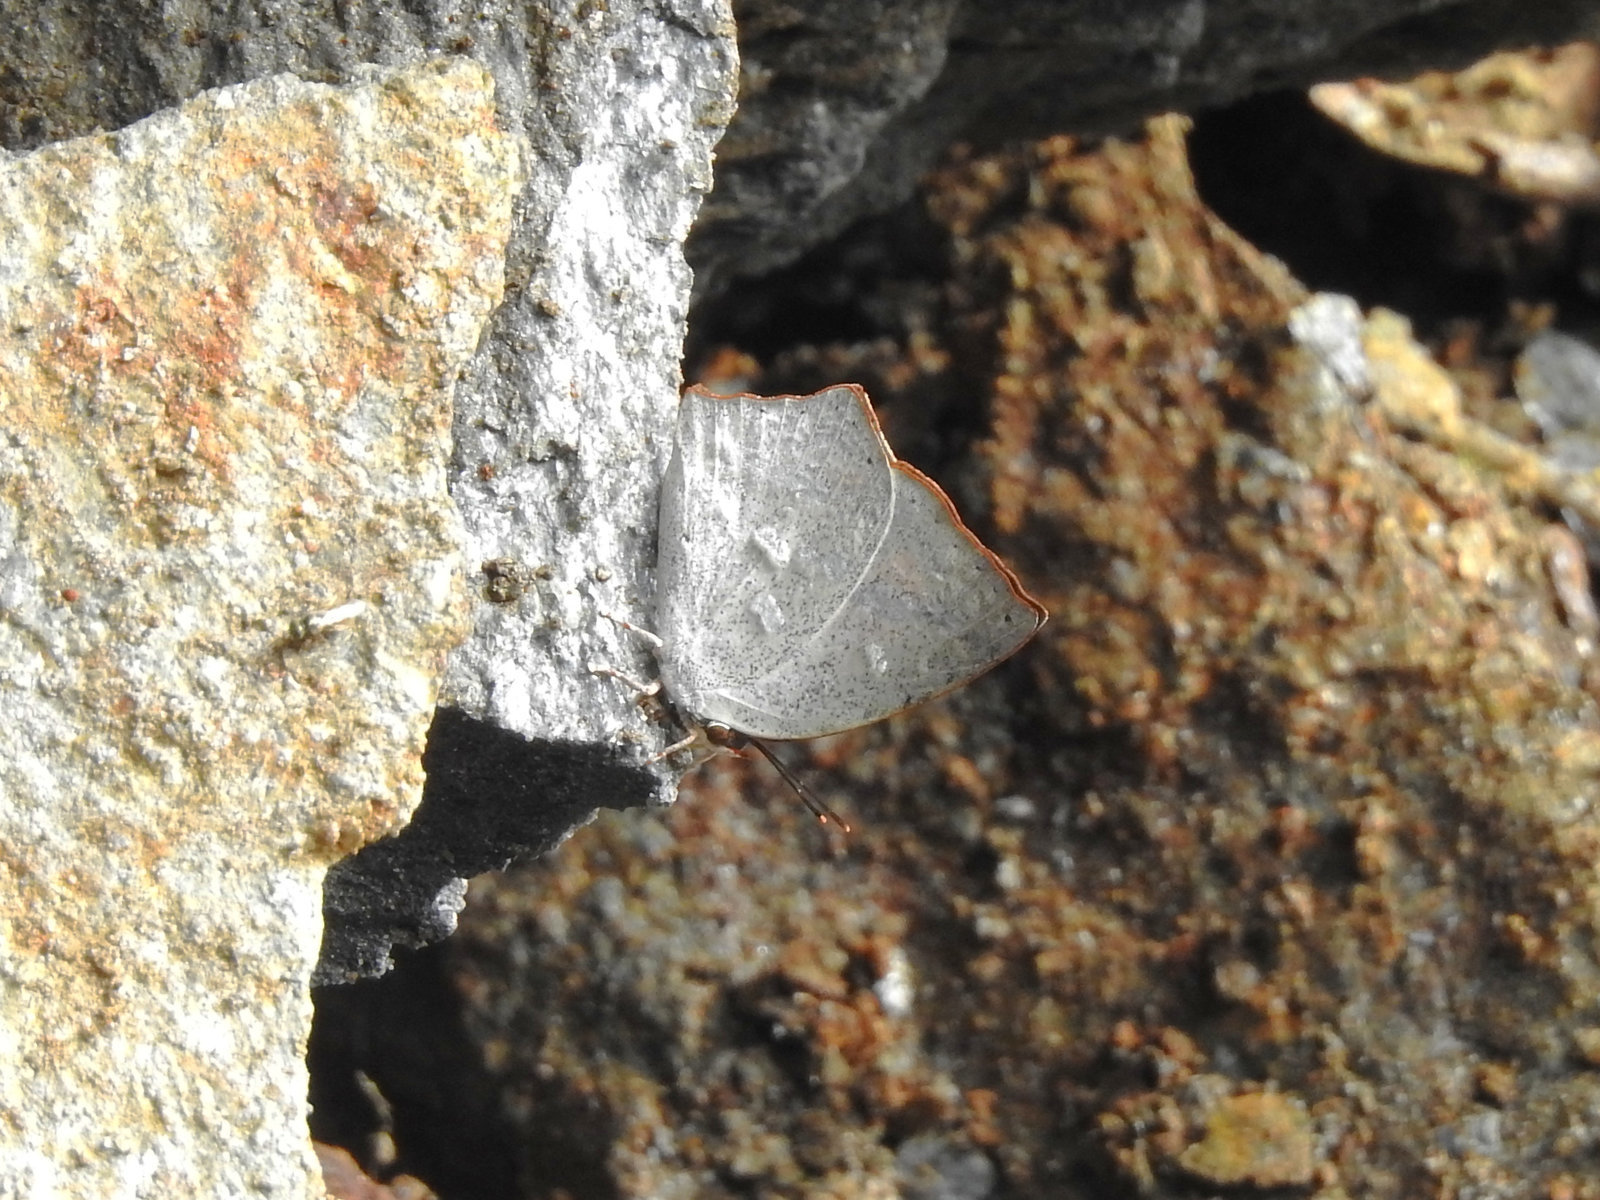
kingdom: Animalia
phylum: Arthropoda
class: Insecta
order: Lepidoptera
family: Lycaenidae
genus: Curetis
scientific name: Curetis acuta
